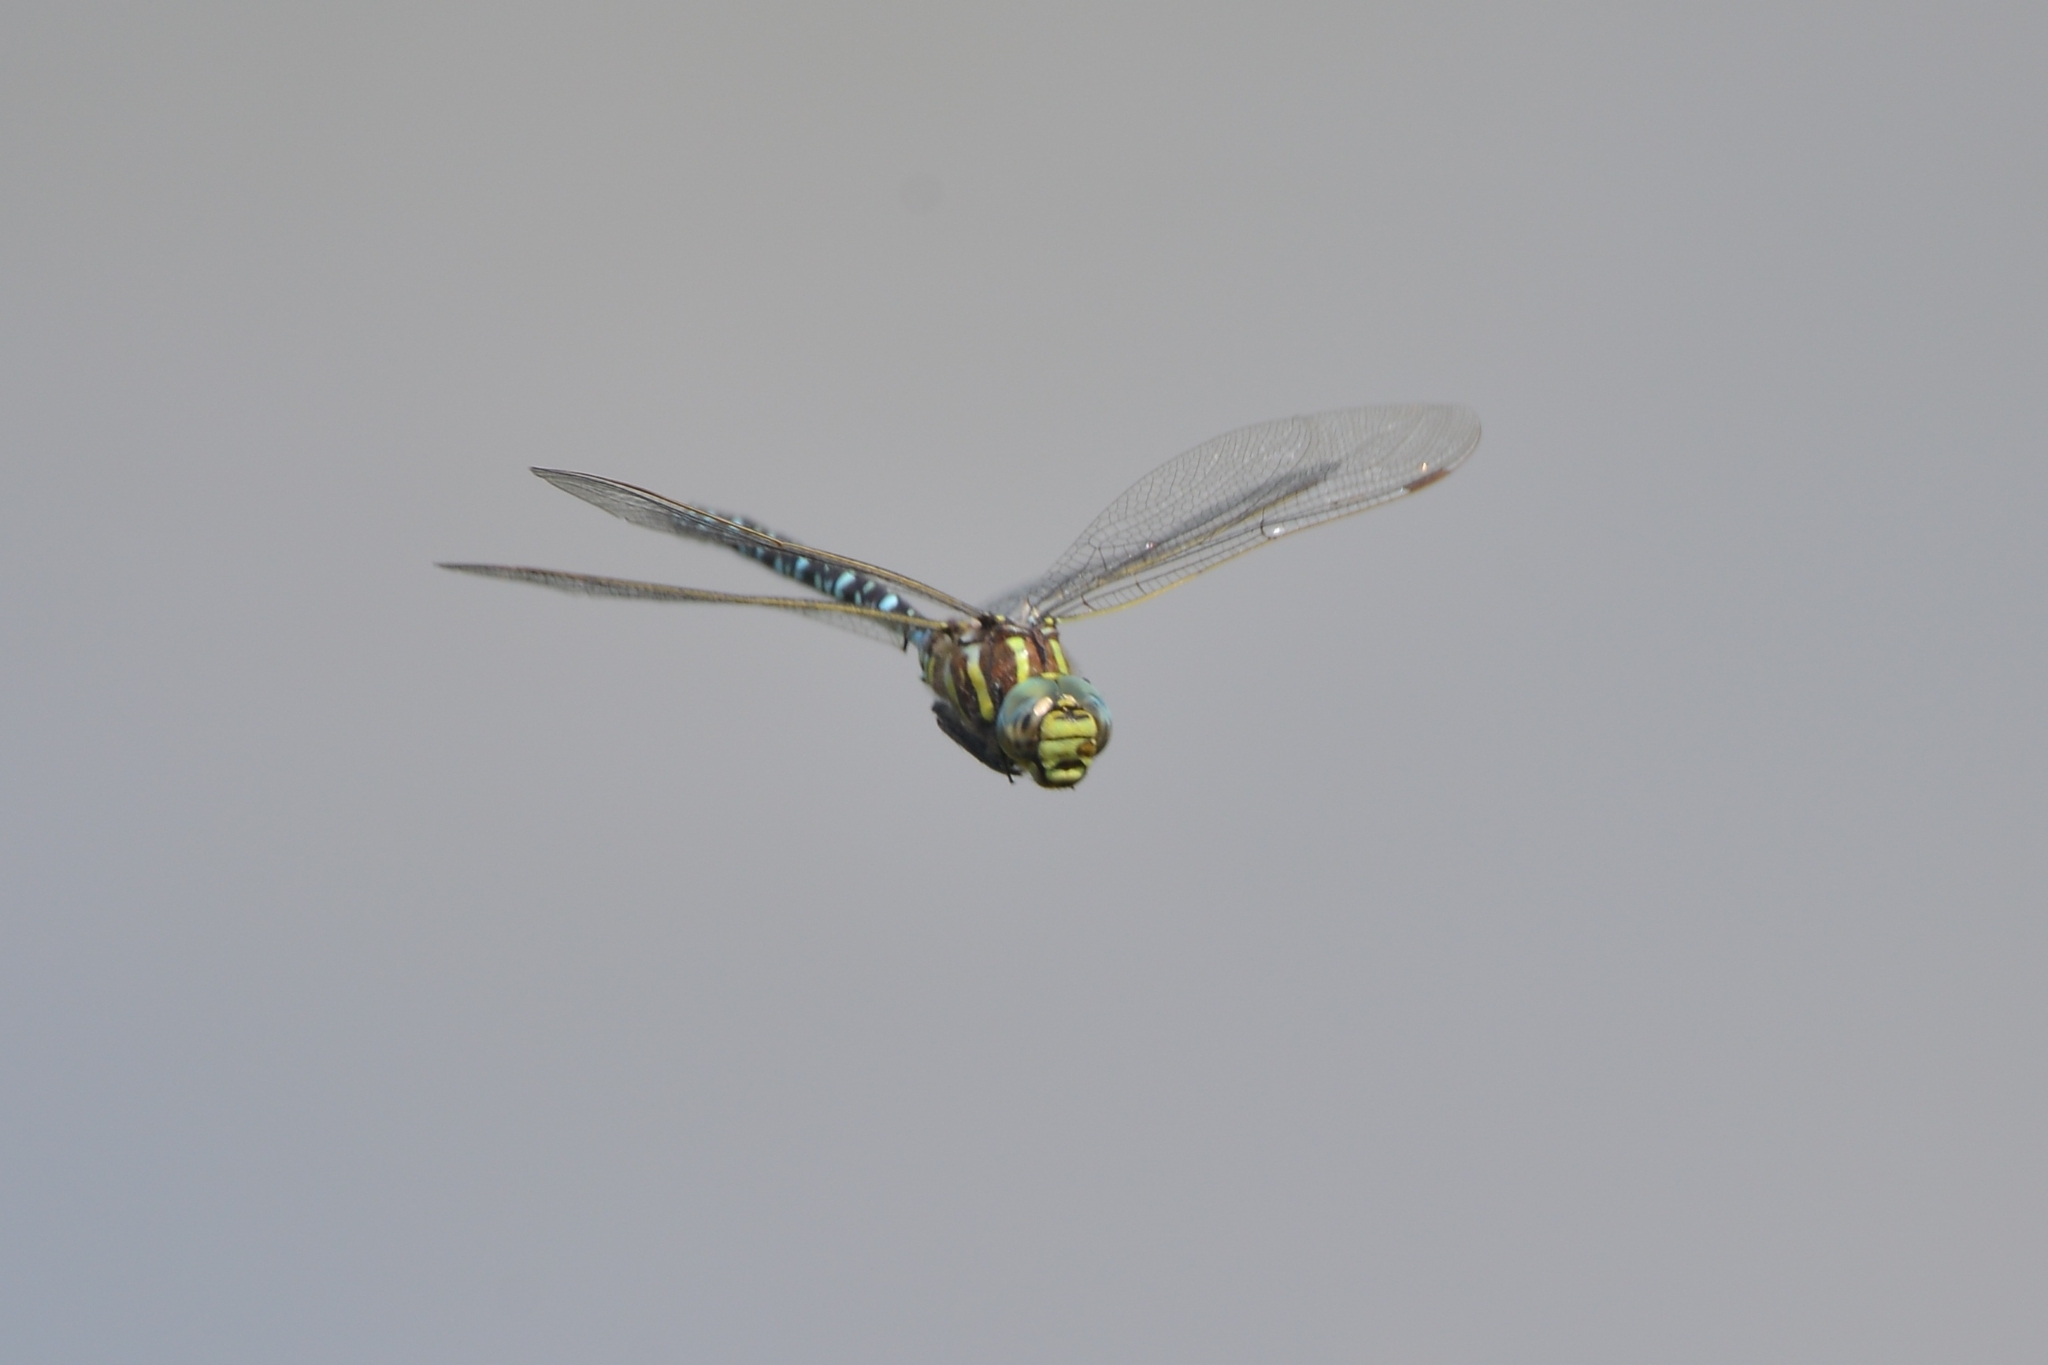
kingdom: Animalia
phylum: Arthropoda
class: Insecta
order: Odonata
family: Aeshnidae
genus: Aeshna
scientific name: Aeshna juncea
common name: Moorland hawker
